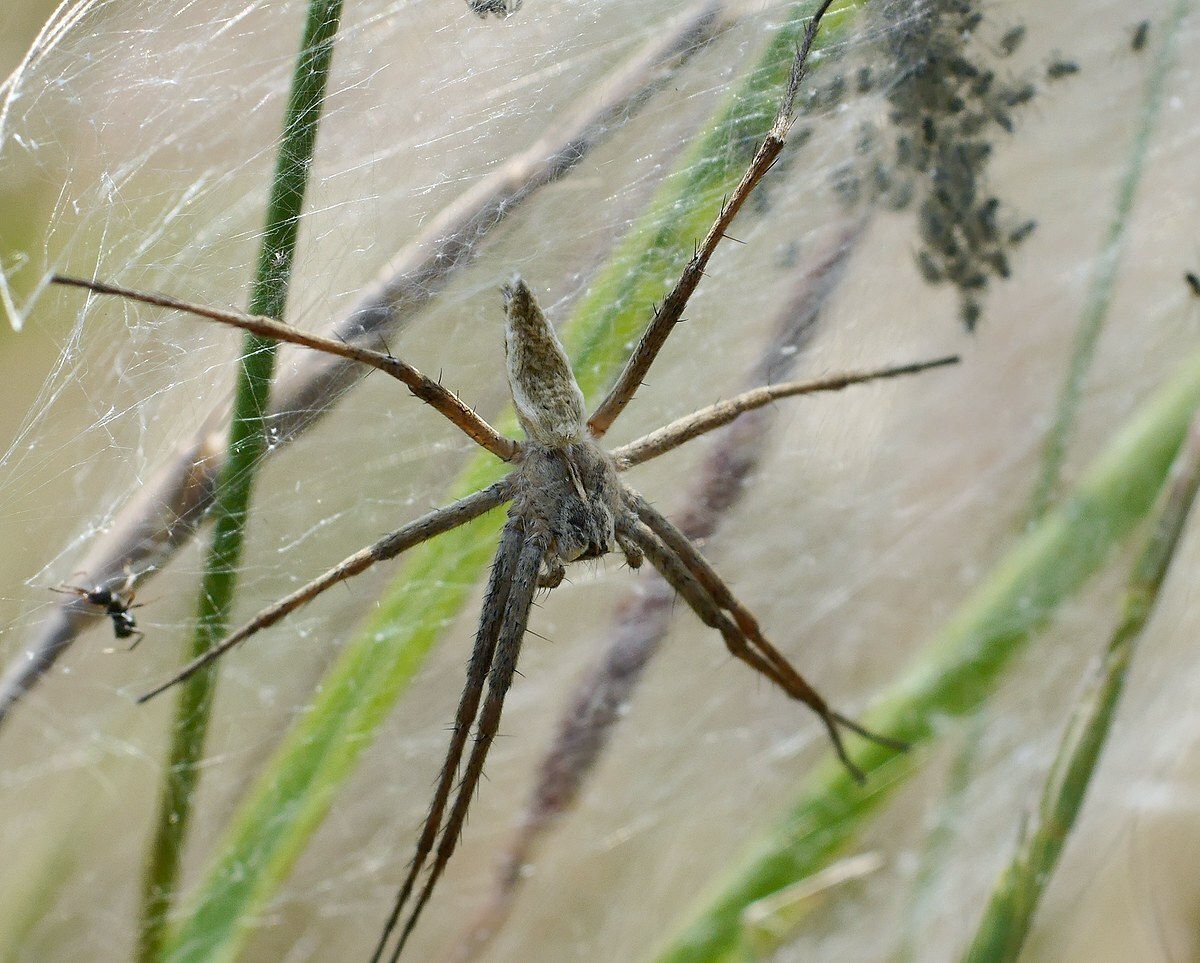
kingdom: Animalia
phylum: Arthropoda
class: Arachnida
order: Araneae
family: Pisauridae
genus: Pisaura
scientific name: Pisaura
